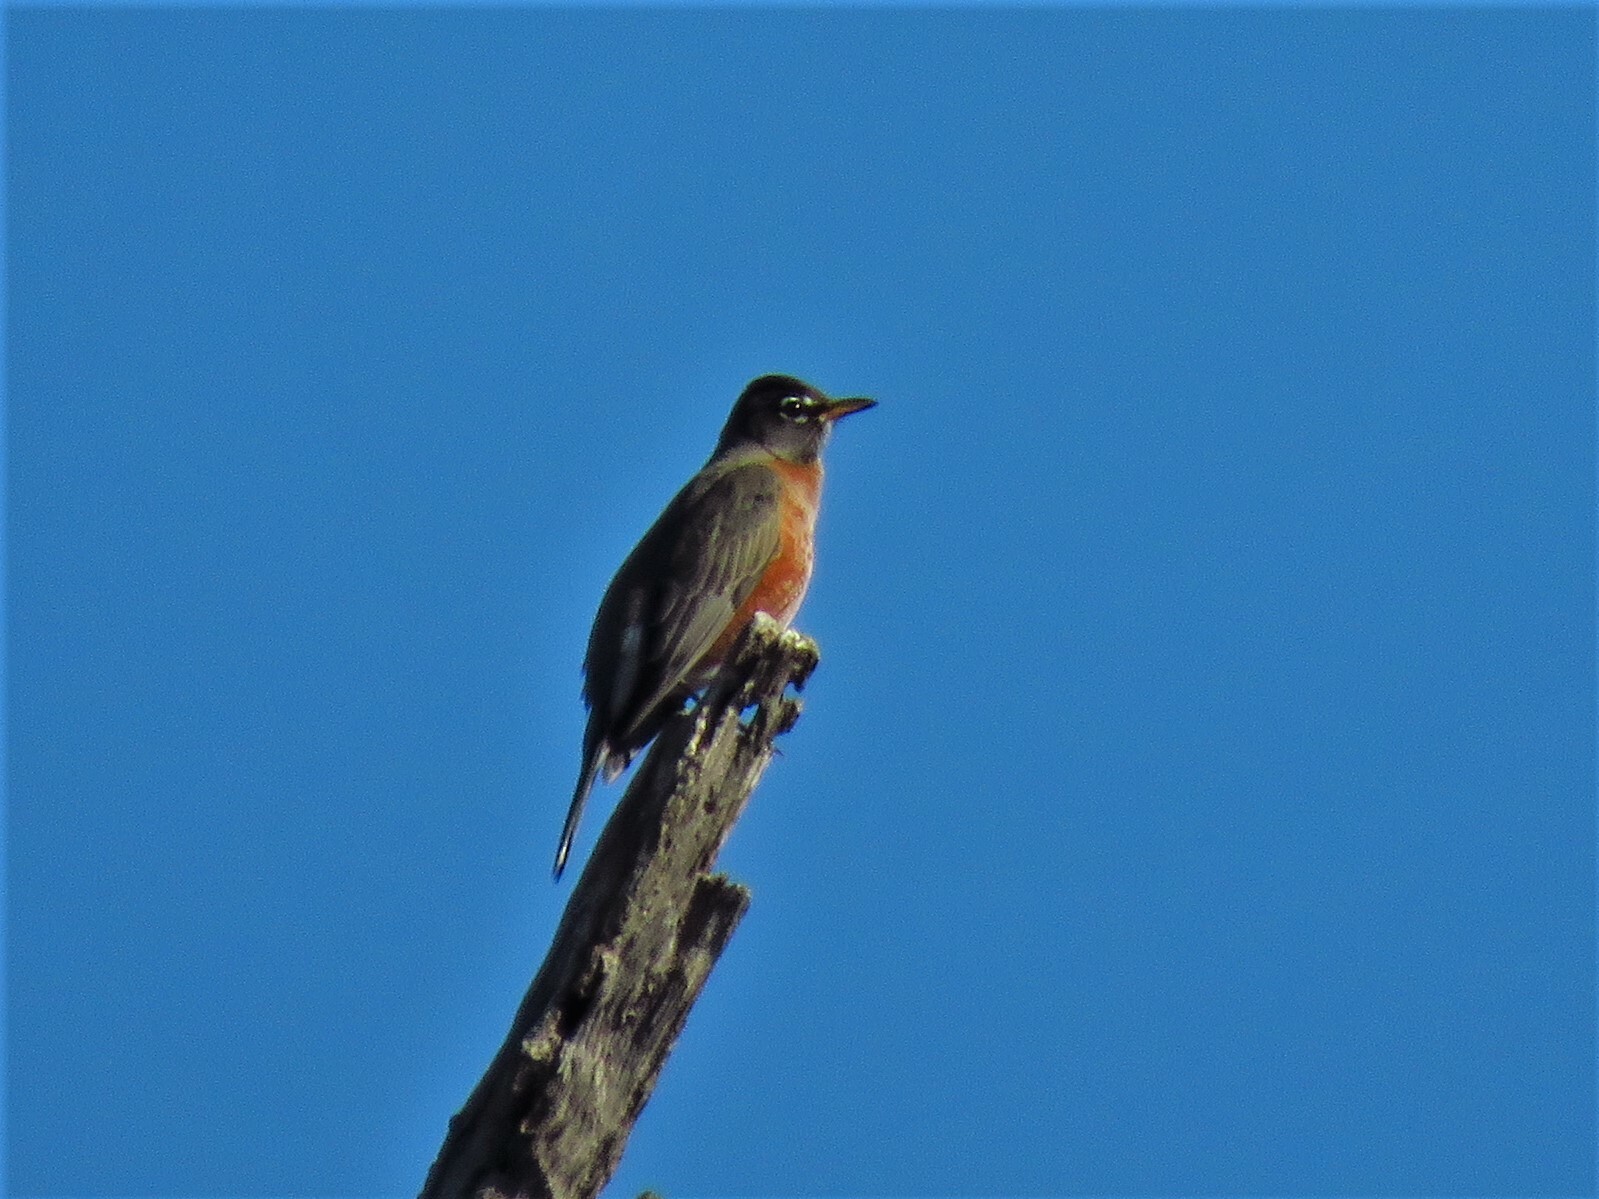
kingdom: Animalia
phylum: Chordata
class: Aves
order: Passeriformes
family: Turdidae
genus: Turdus
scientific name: Turdus migratorius
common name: American robin
